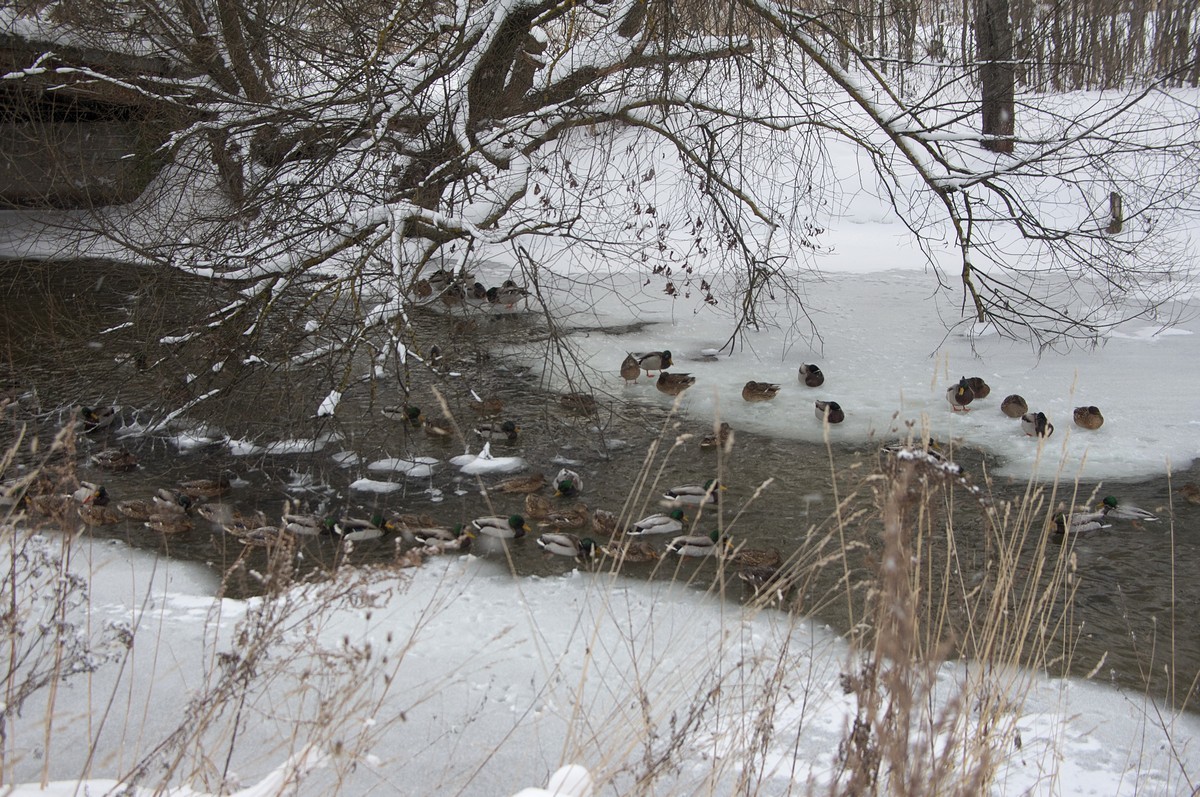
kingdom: Animalia
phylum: Chordata
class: Aves
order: Anseriformes
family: Anatidae
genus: Anas
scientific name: Anas platyrhynchos
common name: Mallard
